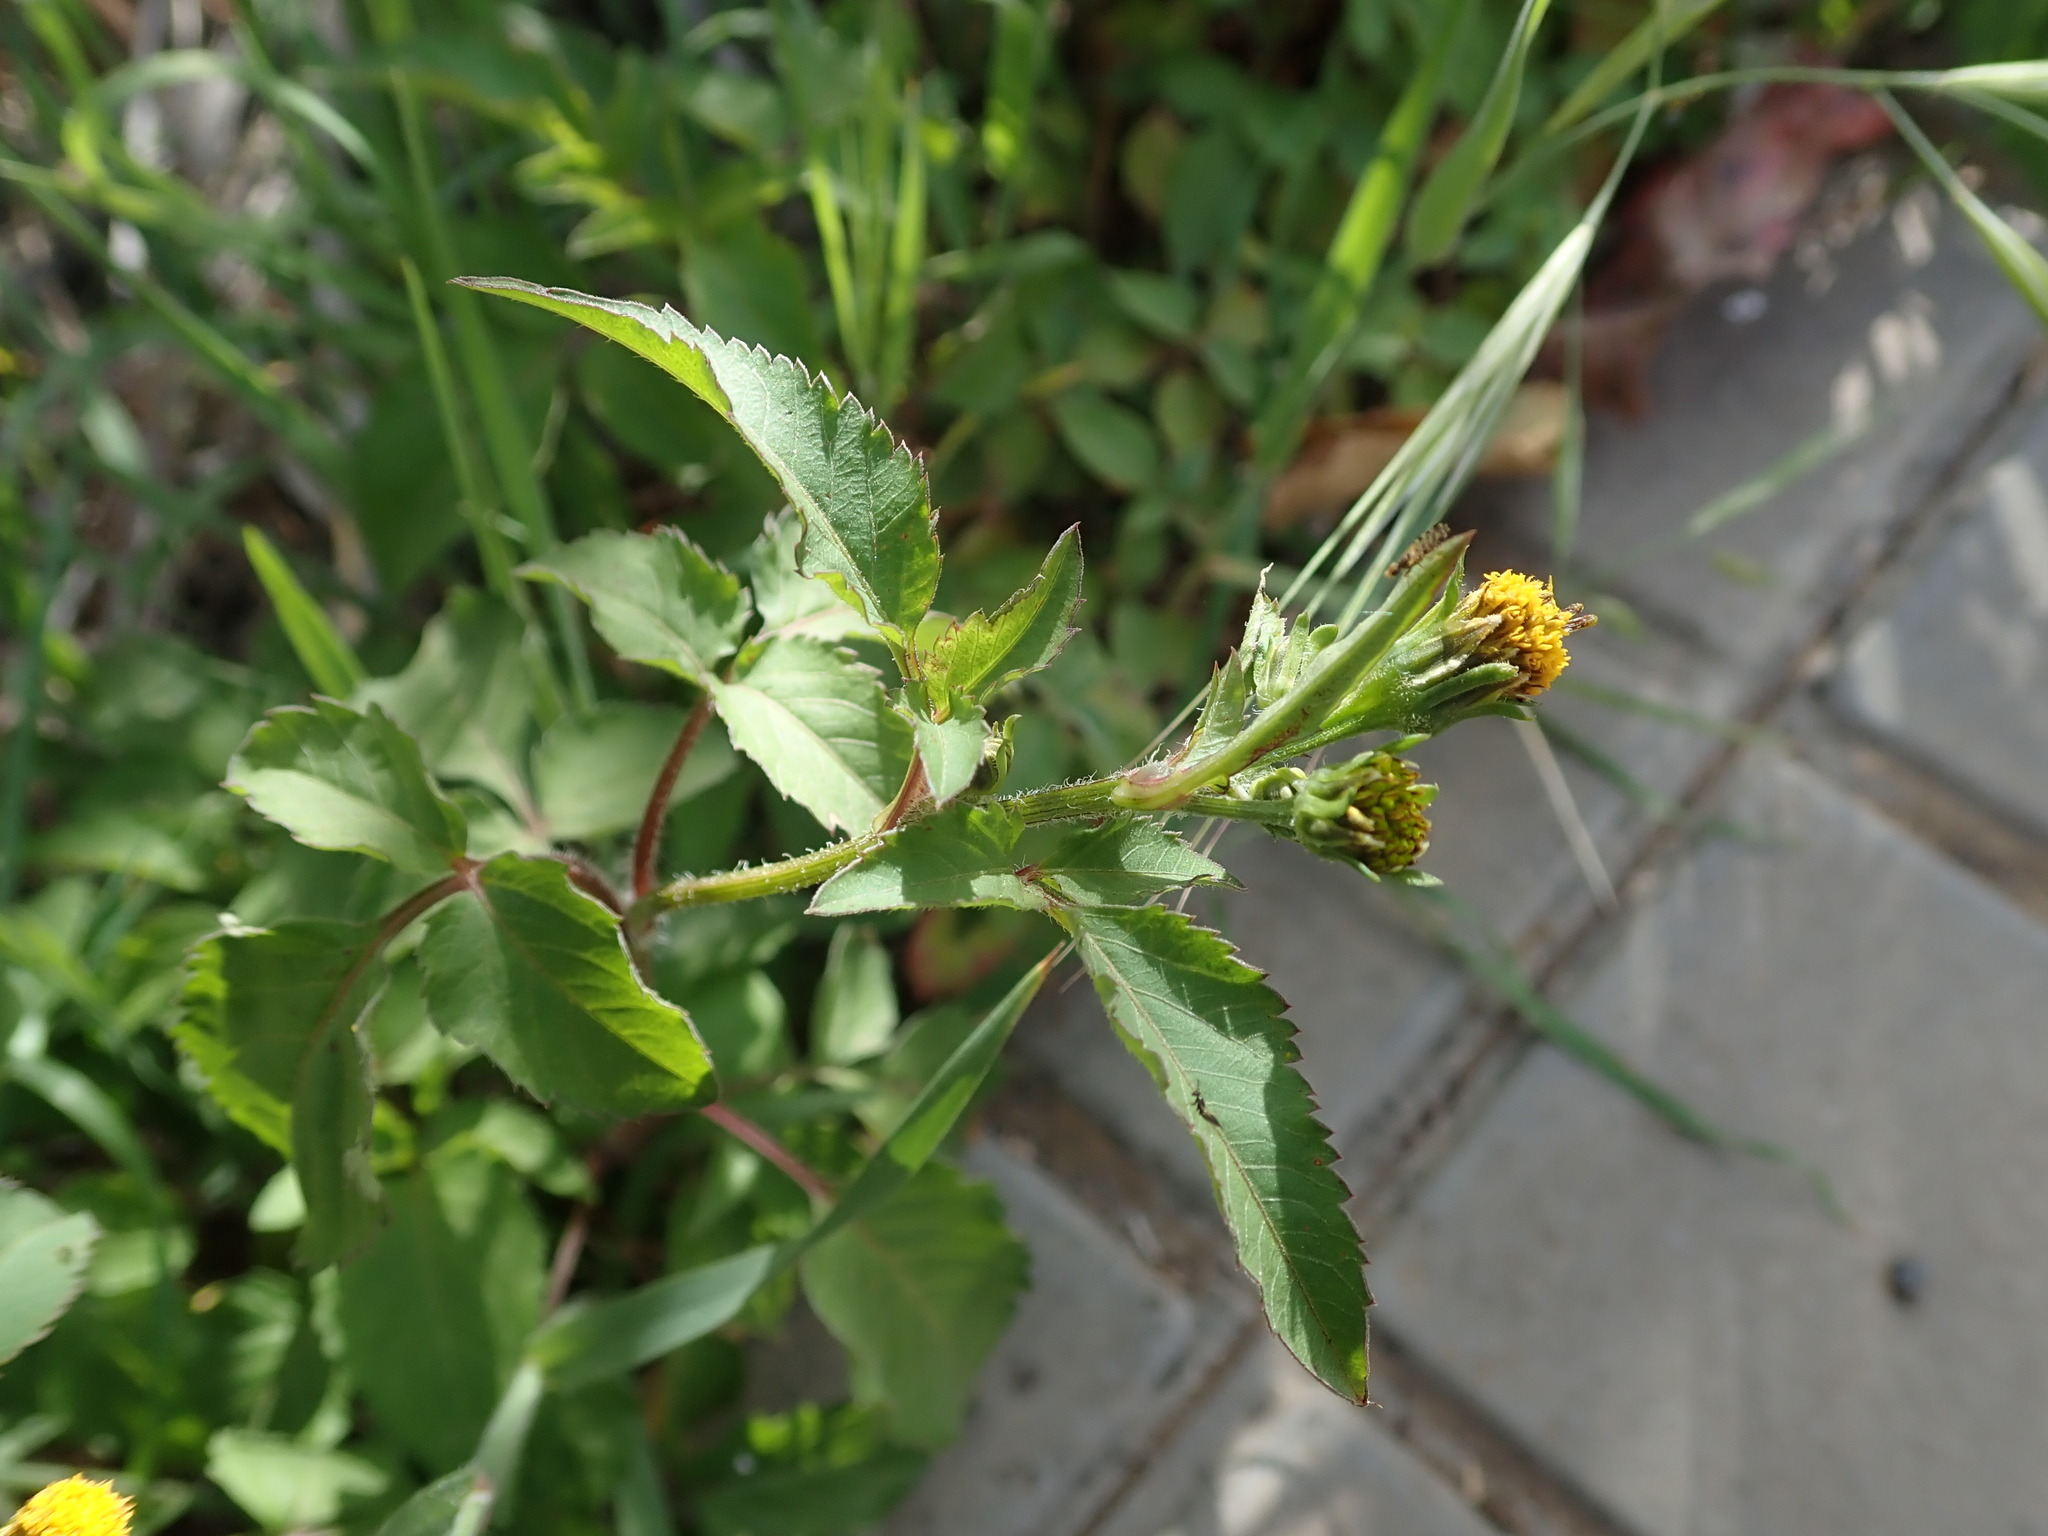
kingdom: Plantae
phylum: Tracheophyta
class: Magnoliopsida
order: Asterales
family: Asteraceae
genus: Bidens
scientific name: Bidens pilosa
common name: Black-jack
